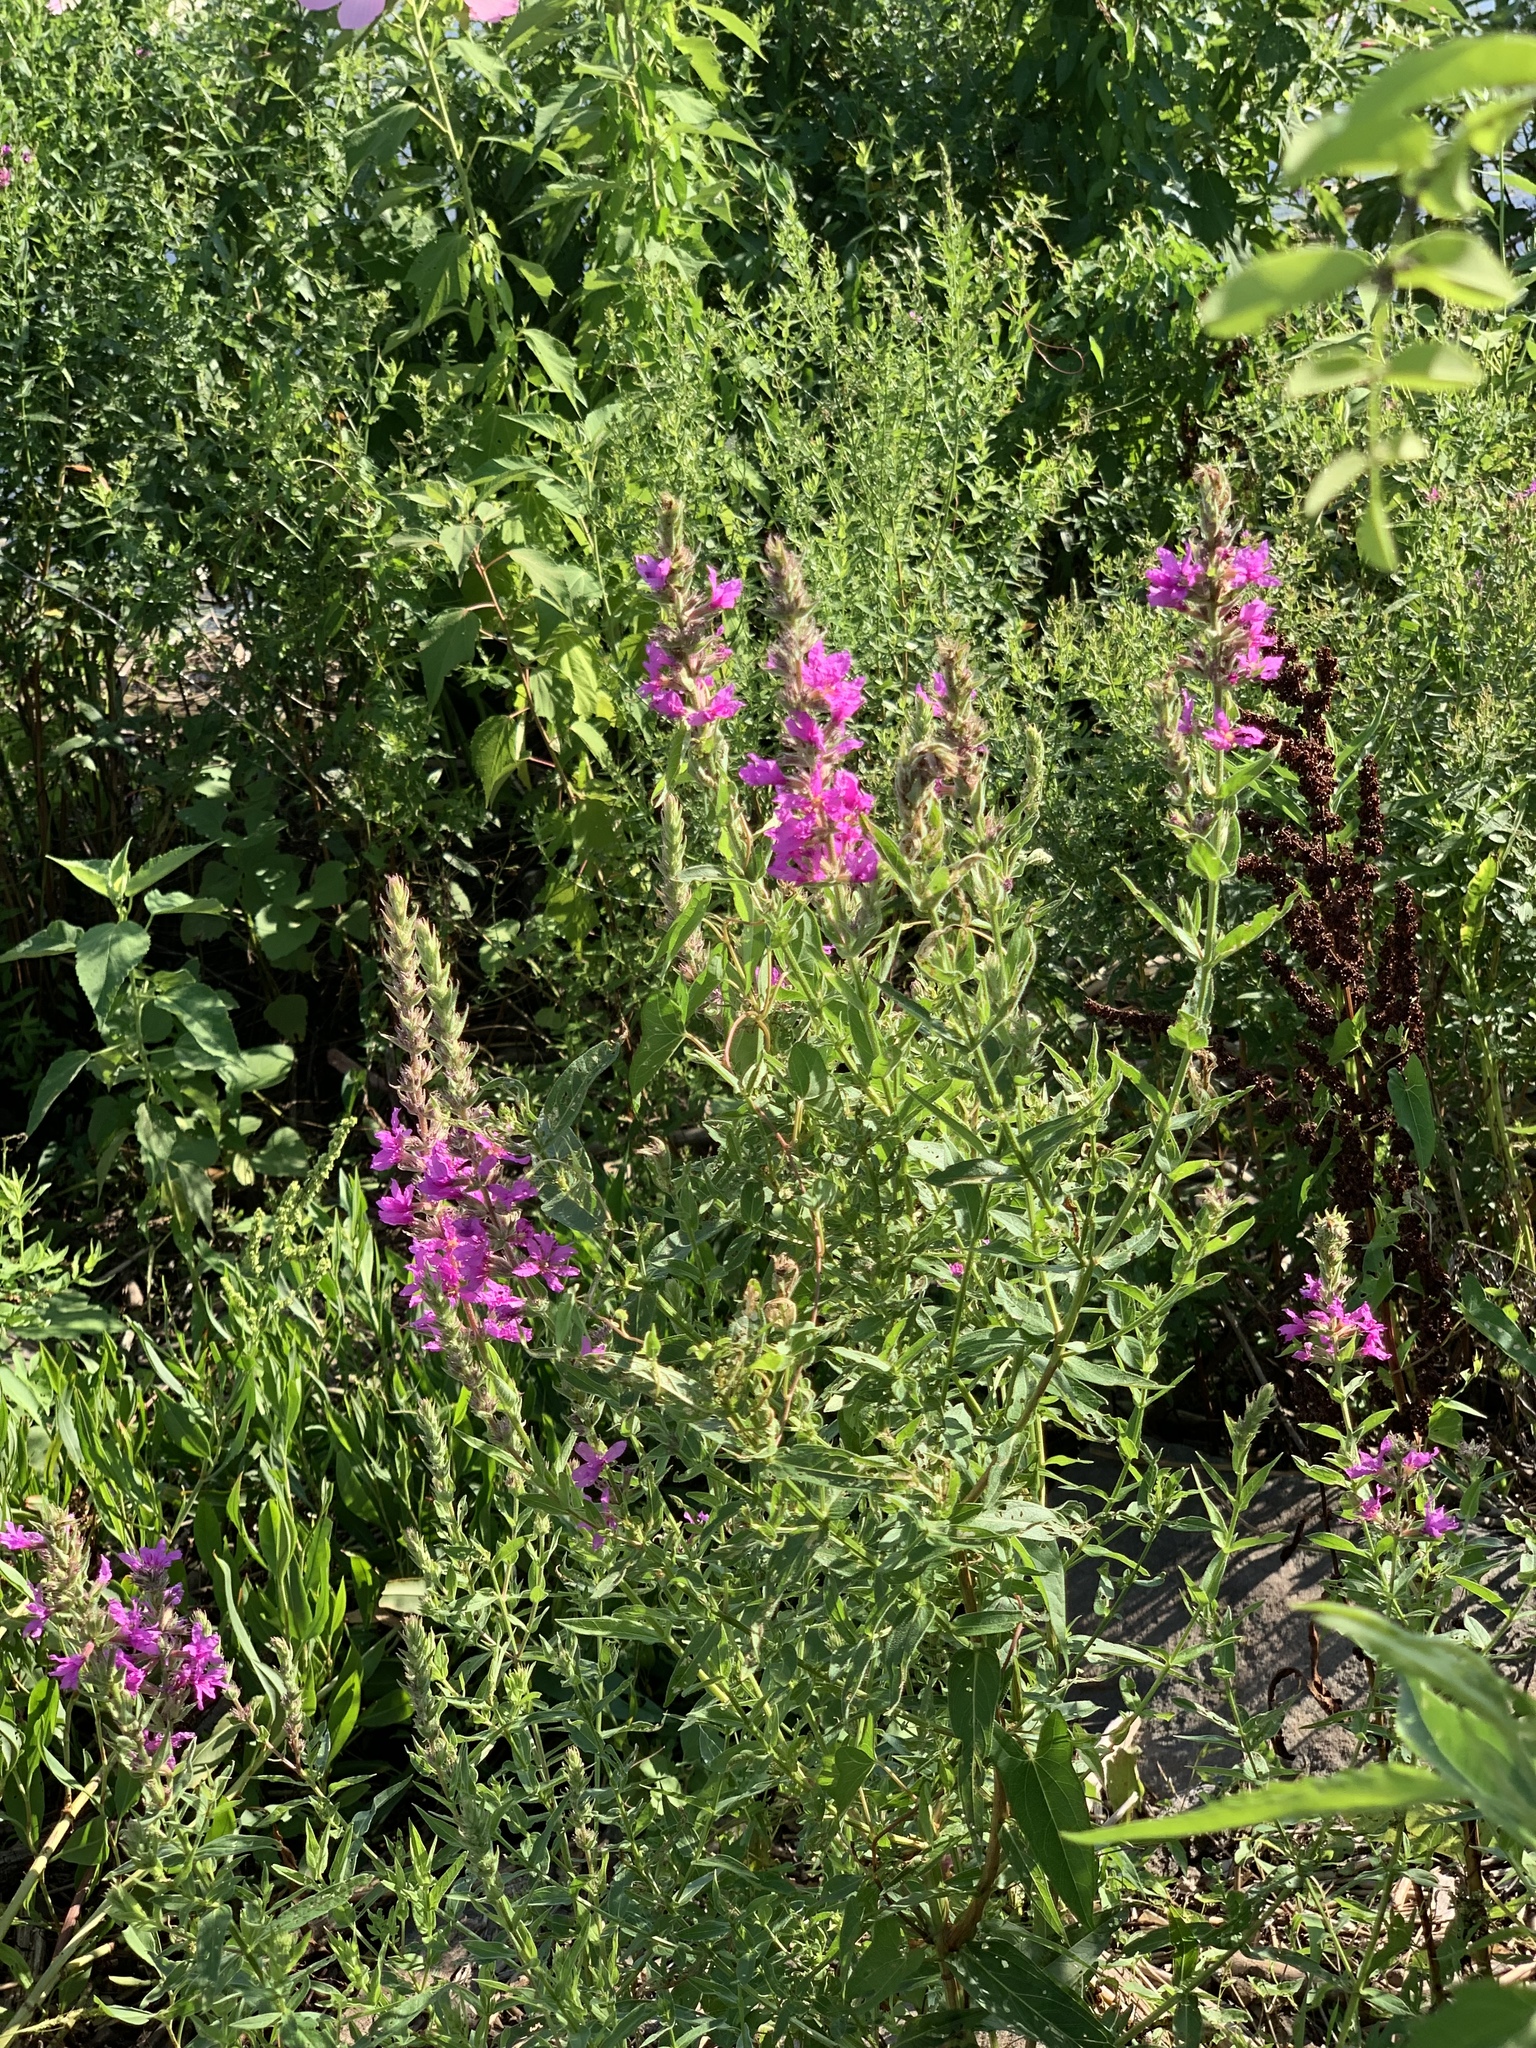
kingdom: Plantae
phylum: Tracheophyta
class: Magnoliopsida
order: Myrtales
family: Lythraceae
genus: Lythrum
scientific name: Lythrum salicaria
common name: Purple loosestrife
